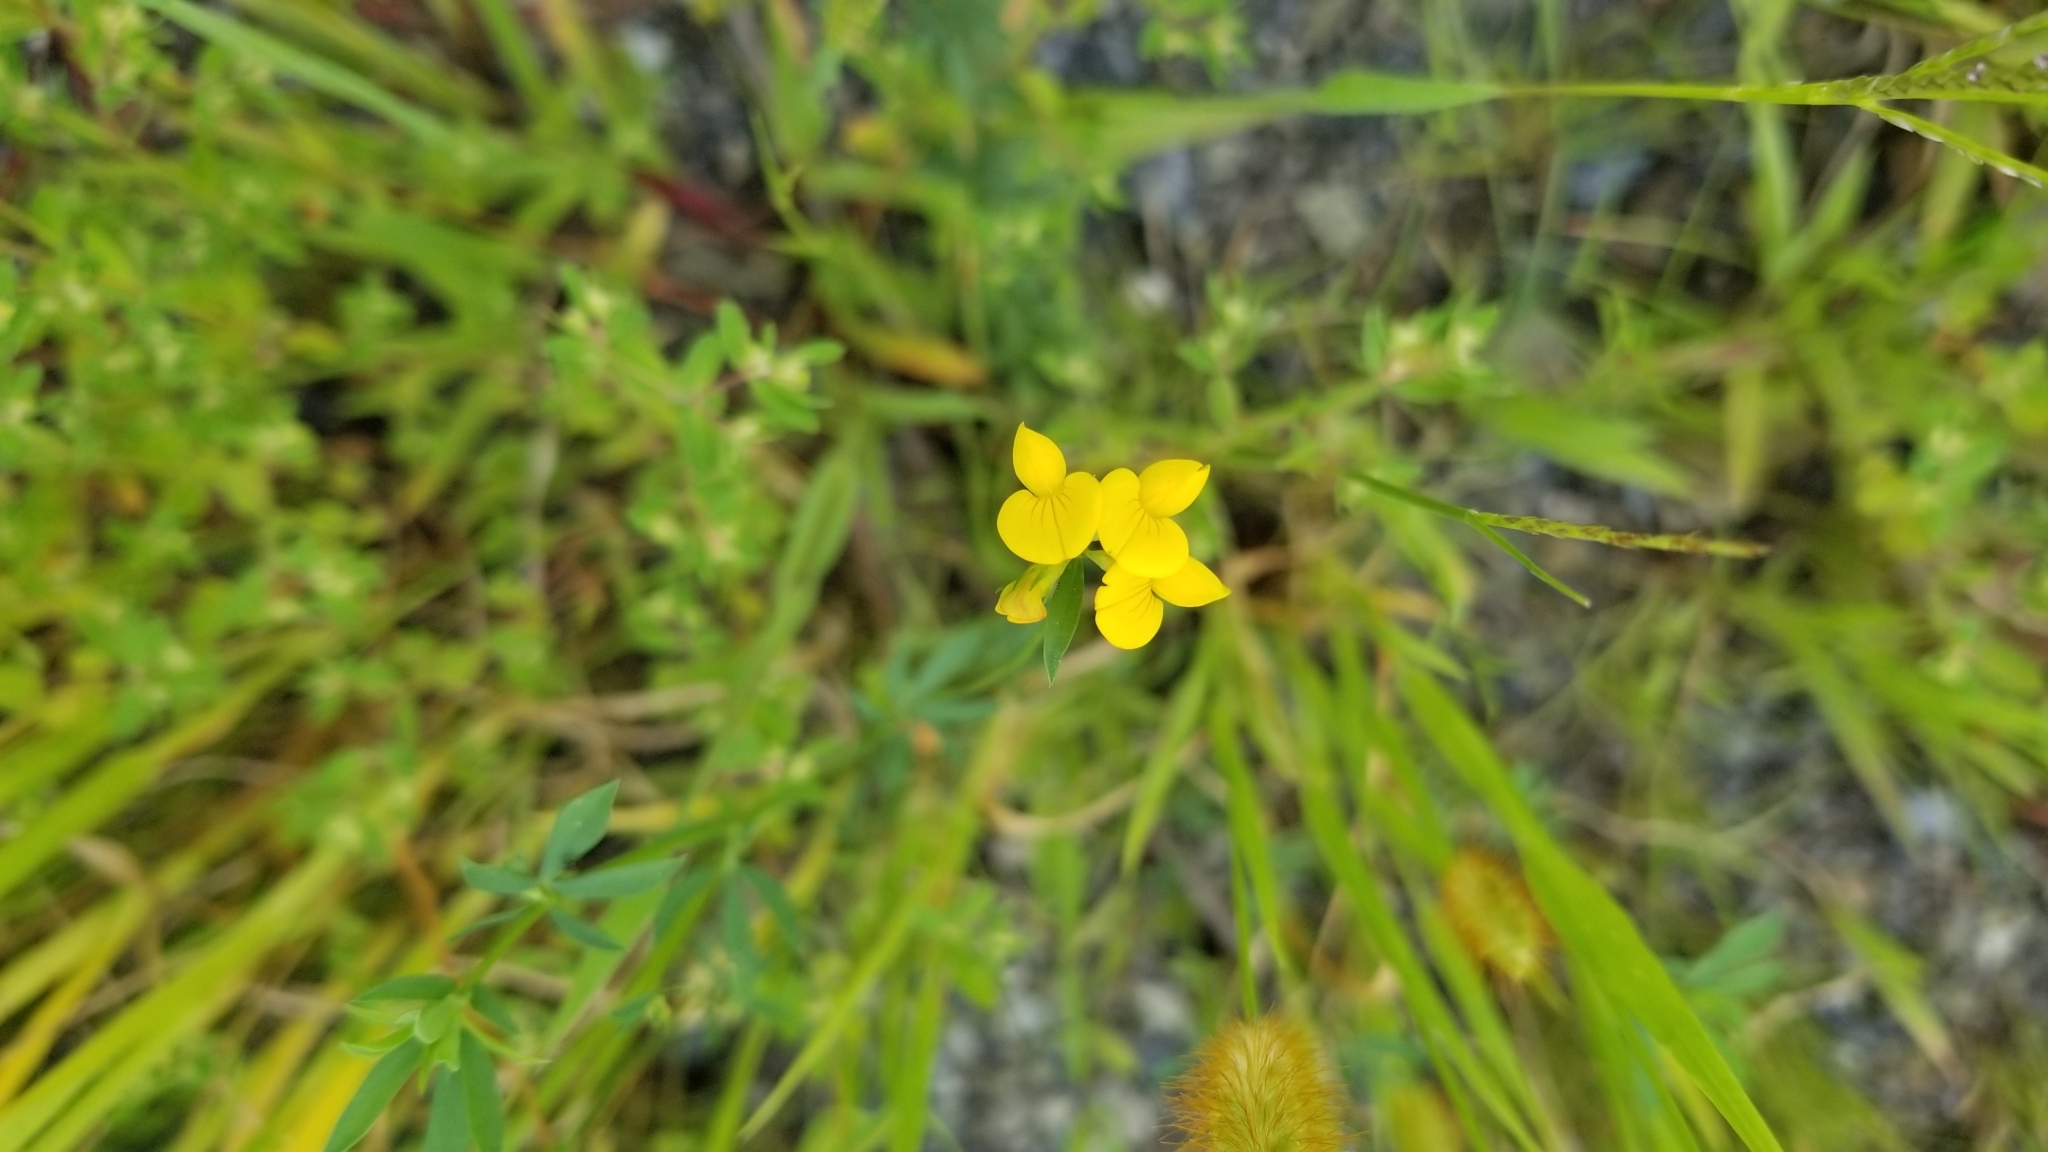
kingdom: Plantae
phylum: Tracheophyta
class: Magnoliopsida
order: Fabales
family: Fabaceae
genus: Lotus
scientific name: Lotus corniculatus
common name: Common bird's-foot-trefoil
